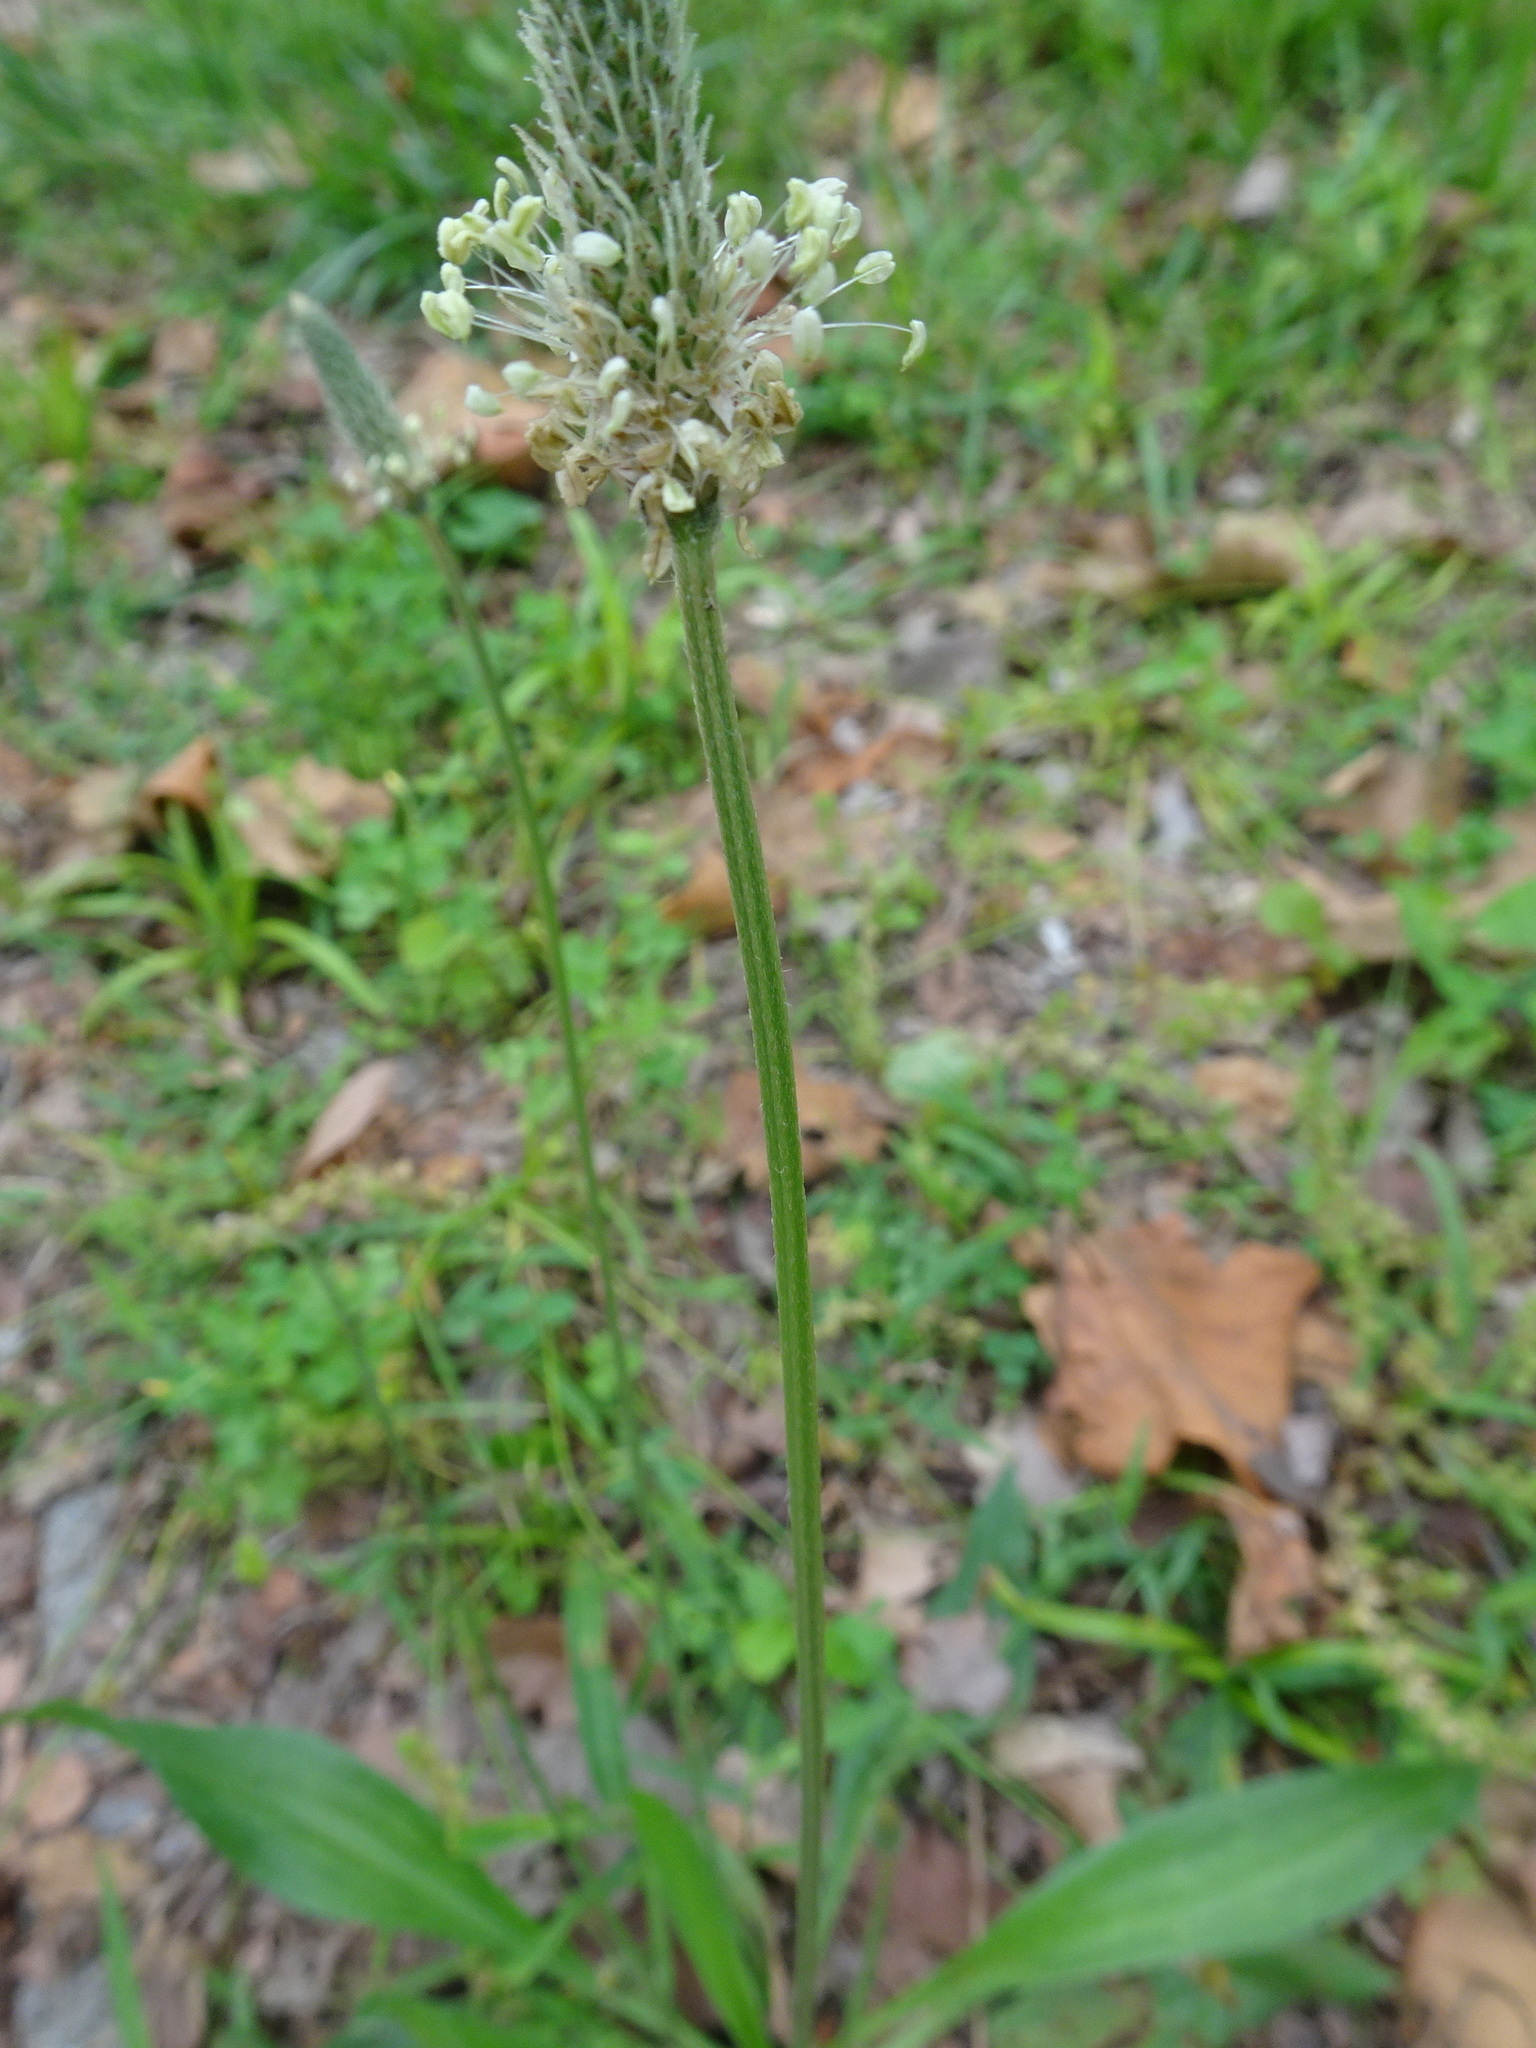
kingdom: Plantae
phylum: Tracheophyta
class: Magnoliopsida
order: Lamiales
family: Plantaginaceae
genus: Plantago
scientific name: Plantago lanceolata
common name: Ribwort plantain
